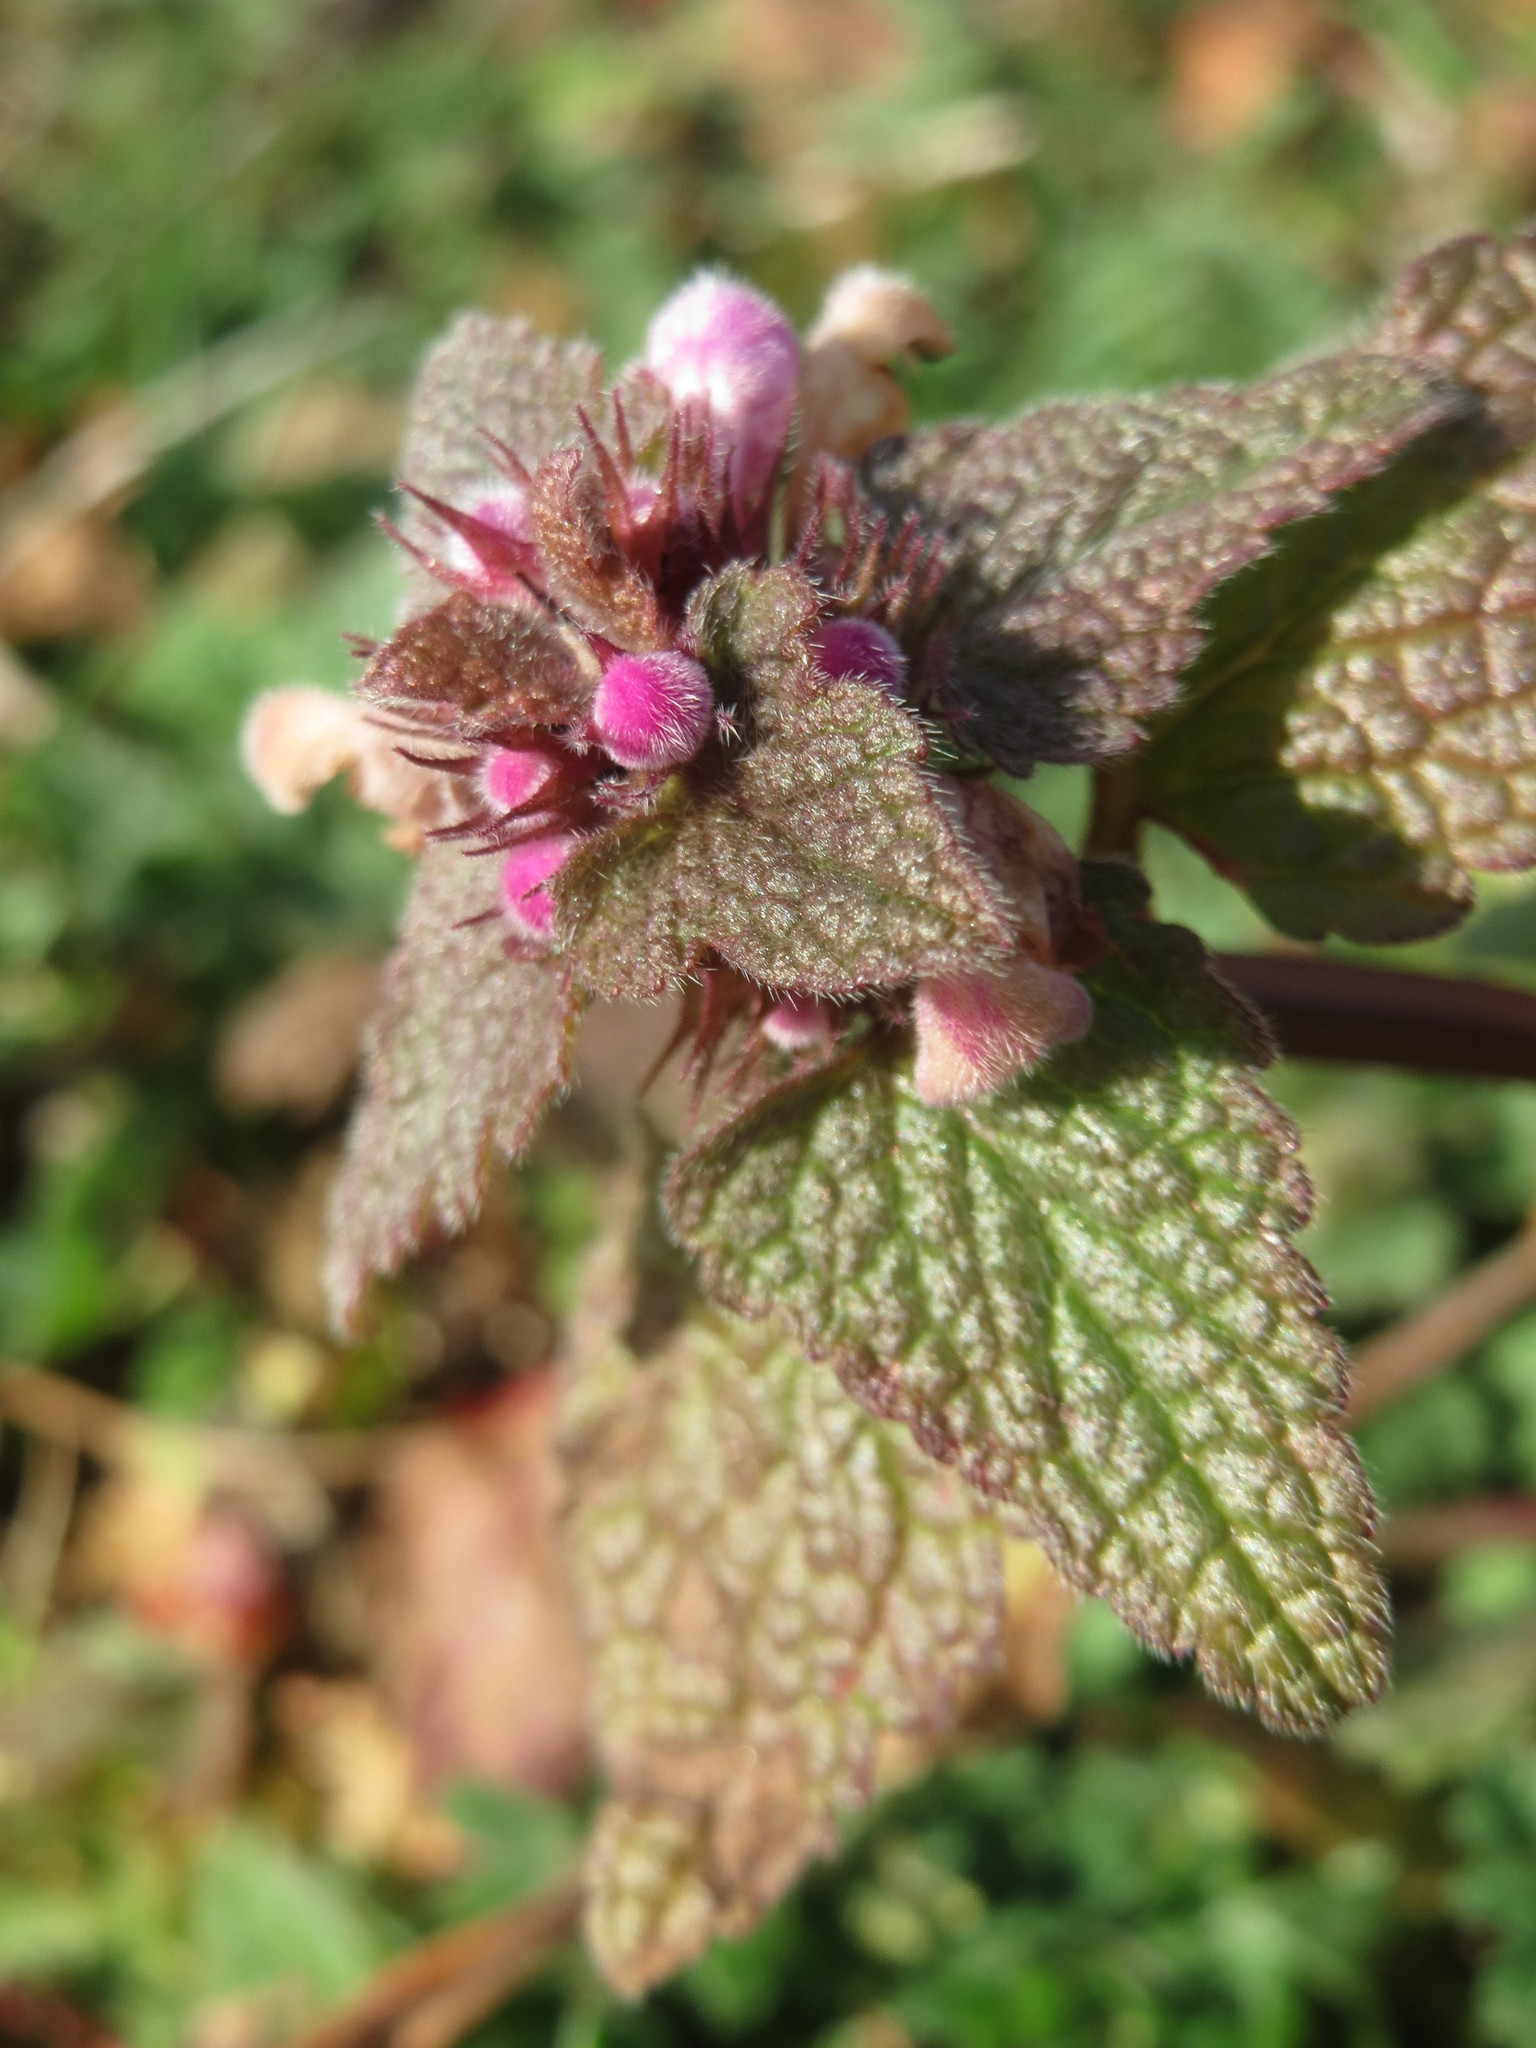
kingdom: Plantae
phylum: Tracheophyta
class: Magnoliopsida
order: Lamiales
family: Lamiaceae
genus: Lamium
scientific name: Lamium purpureum
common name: Red dead-nettle
